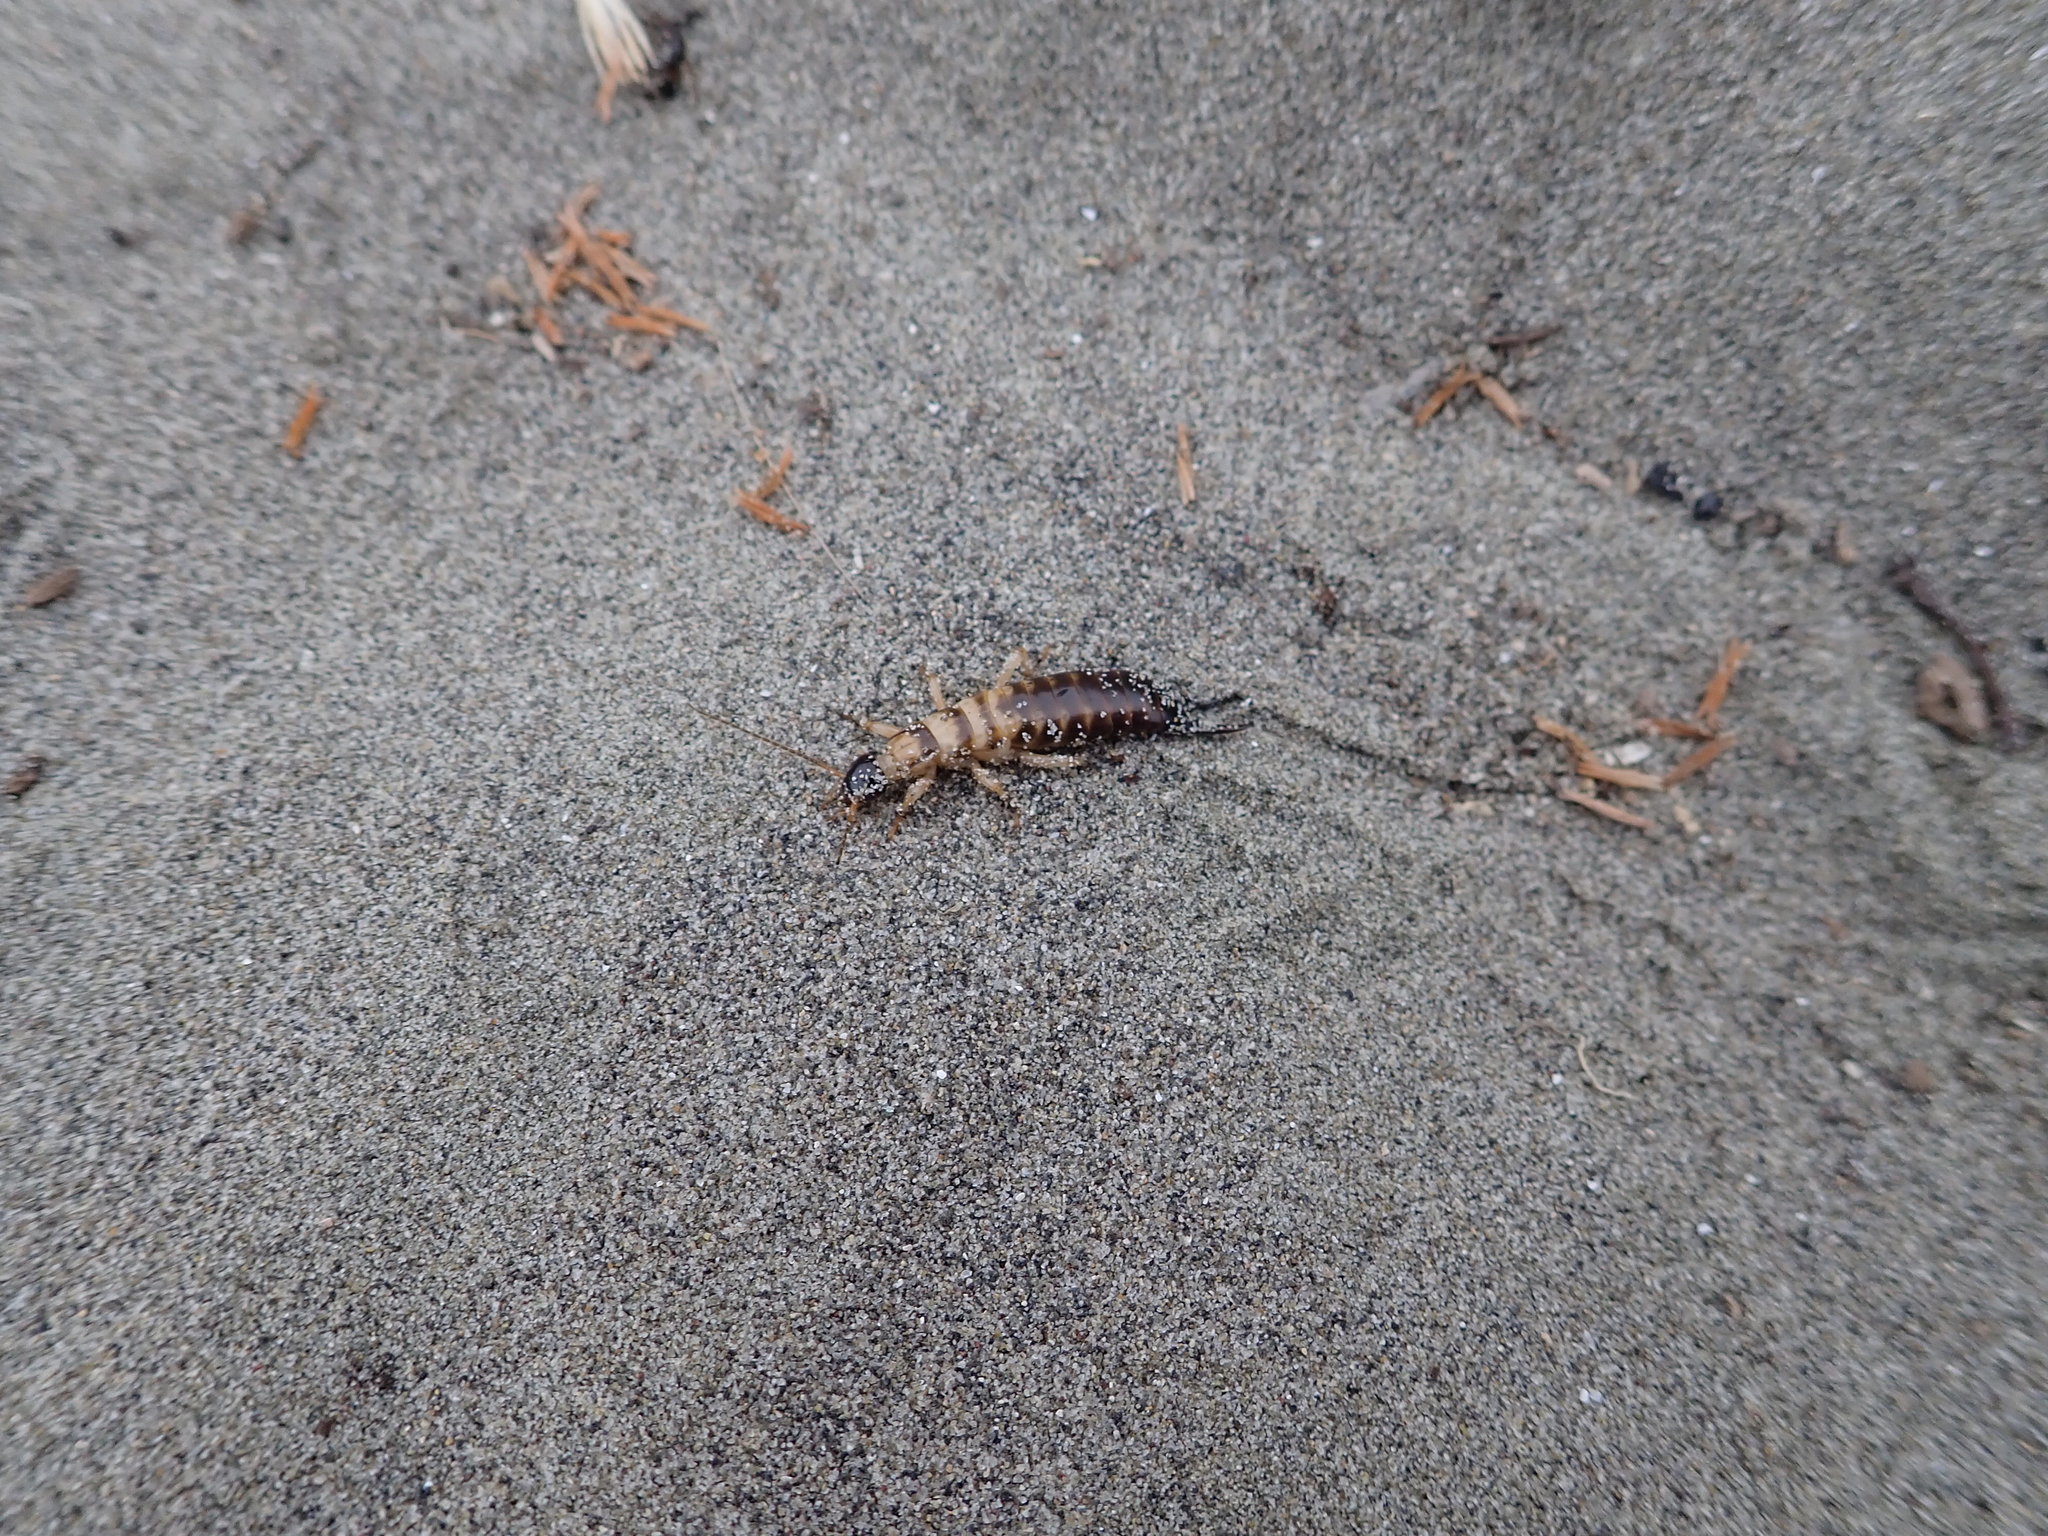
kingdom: Animalia
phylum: Arthropoda
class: Insecta
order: Dermaptera
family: Anisolabididae
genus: Anisolabis
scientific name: Anisolabis littorea
